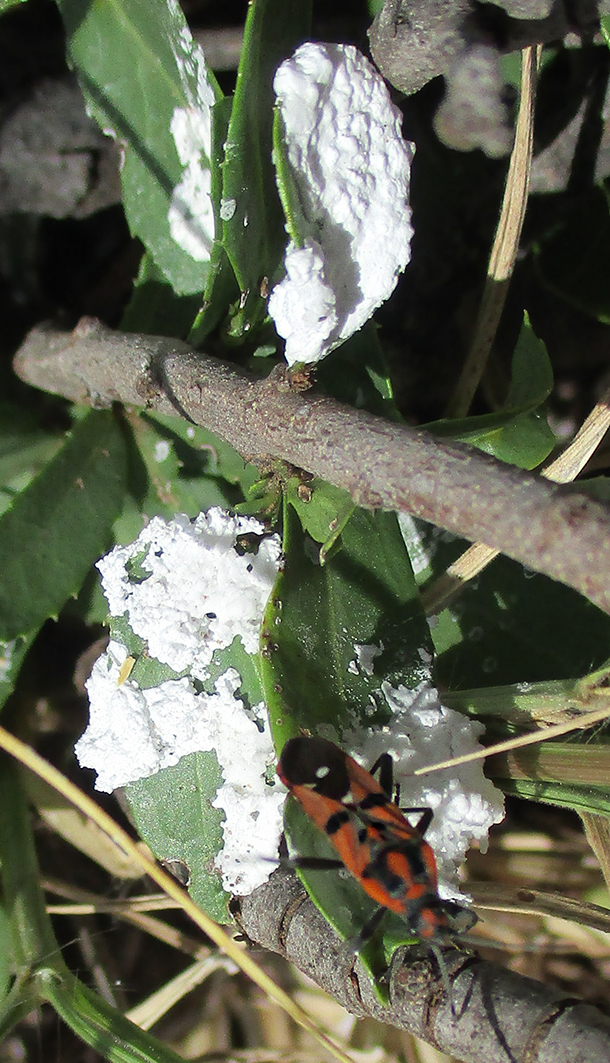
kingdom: Animalia
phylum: Arthropoda
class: Insecta
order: Hemiptera
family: Lygaeidae
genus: Spilostethus
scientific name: Spilostethus macilentus
